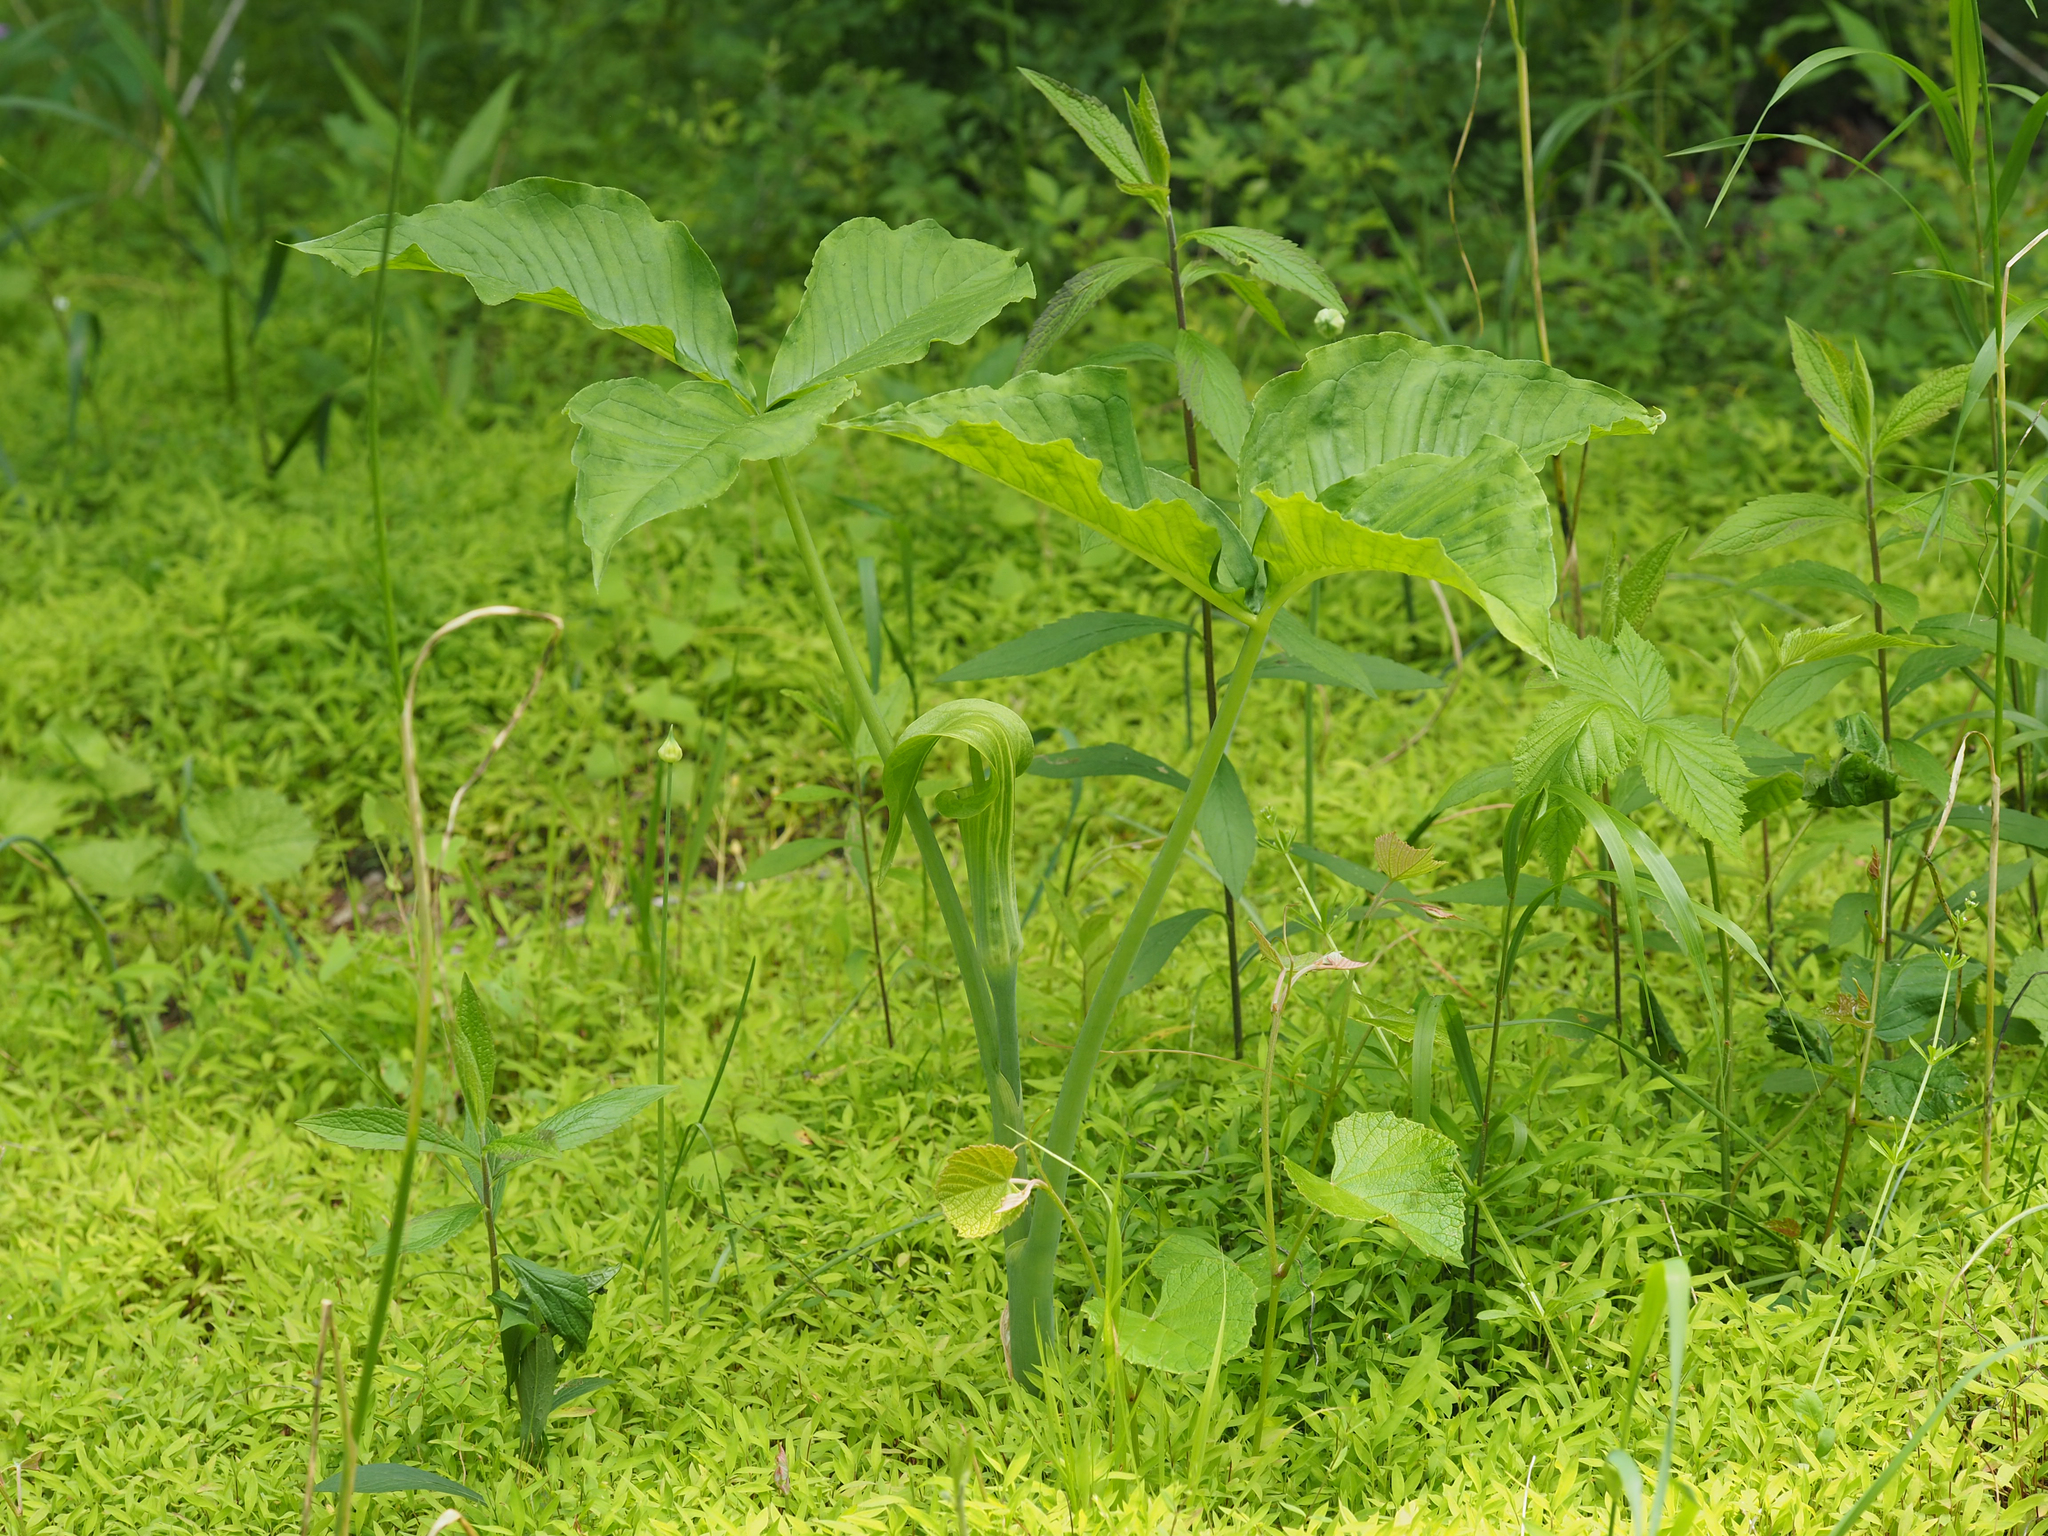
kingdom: Plantae
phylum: Tracheophyta
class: Liliopsida
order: Alismatales
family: Araceae
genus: Arisaema
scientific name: Arisaema triphyllum
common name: Jack-in-the-pulpit
